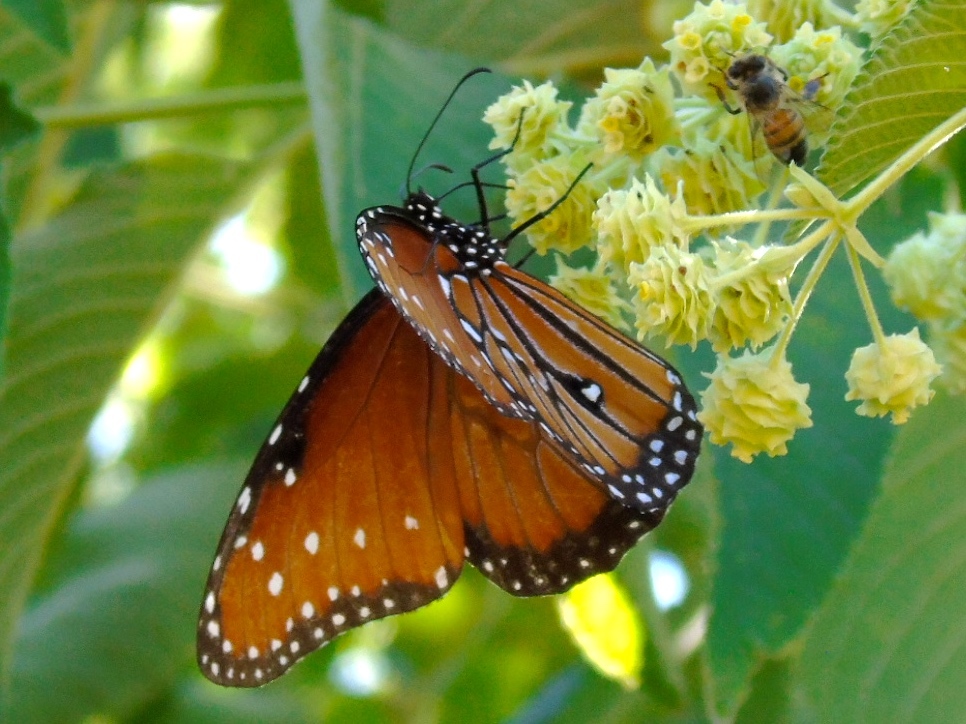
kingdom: Animalia
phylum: Arthropoda
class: Insecta
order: Lepidoptera
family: Nymphalidae
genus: Danaus
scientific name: Danaus gilippus
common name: Queen
